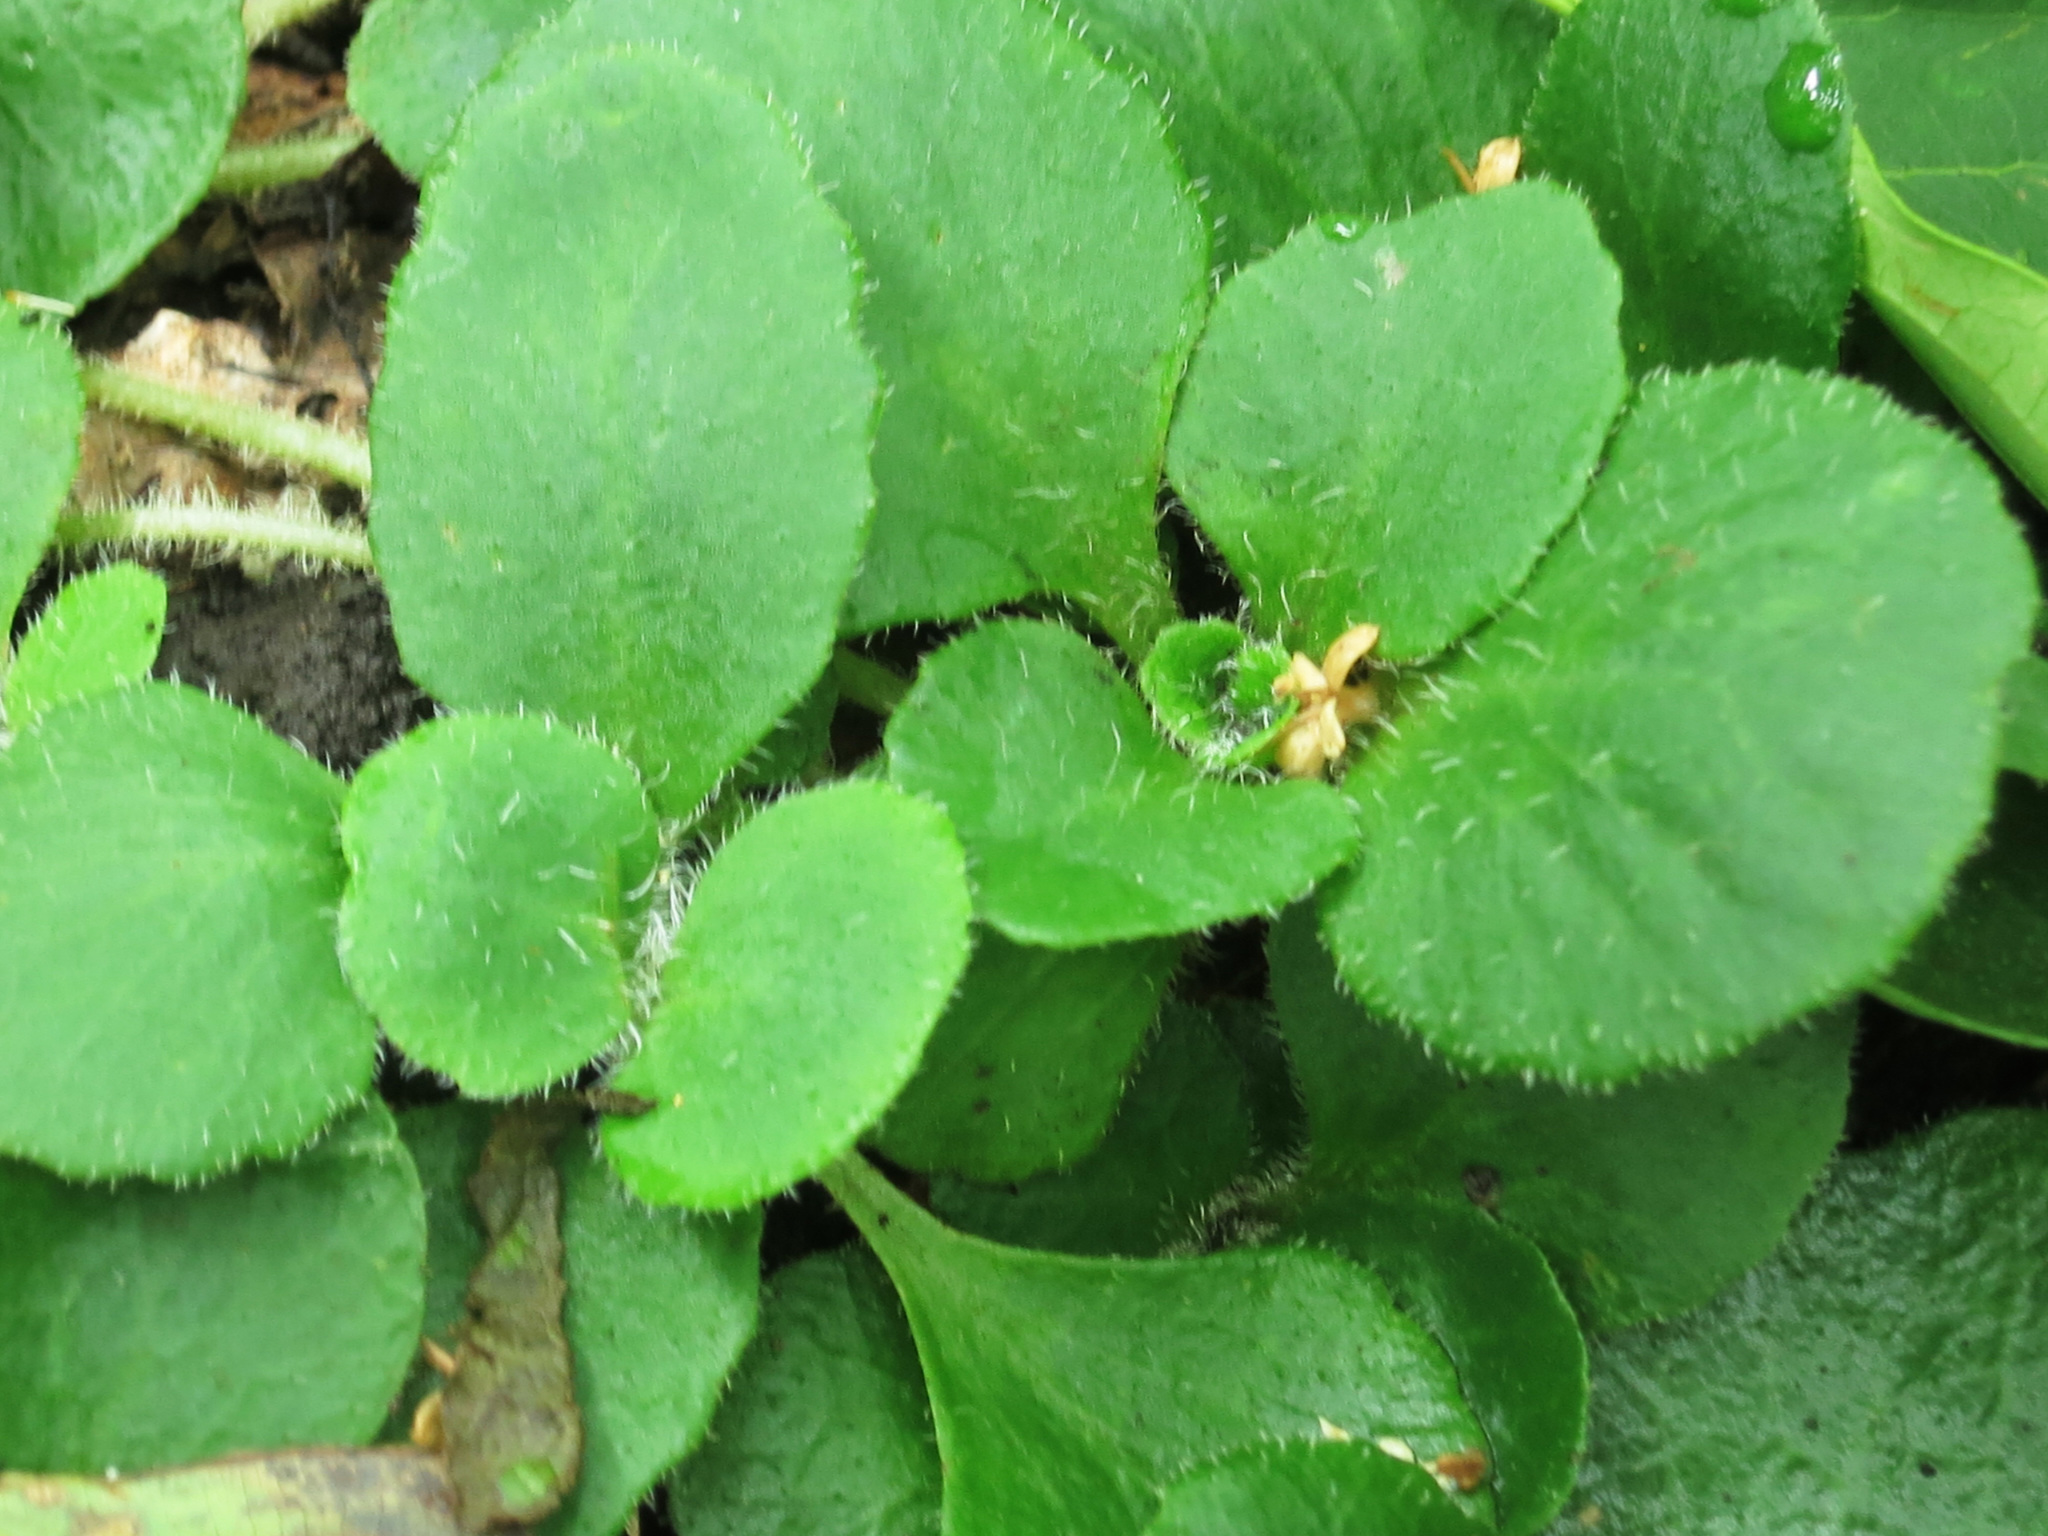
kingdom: Plantae
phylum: Tracheophyta
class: Magnoliopsida
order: Saxifragales
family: Saxifragaceae
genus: Chrysosplenium
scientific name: Chrysosplenium pilosum
